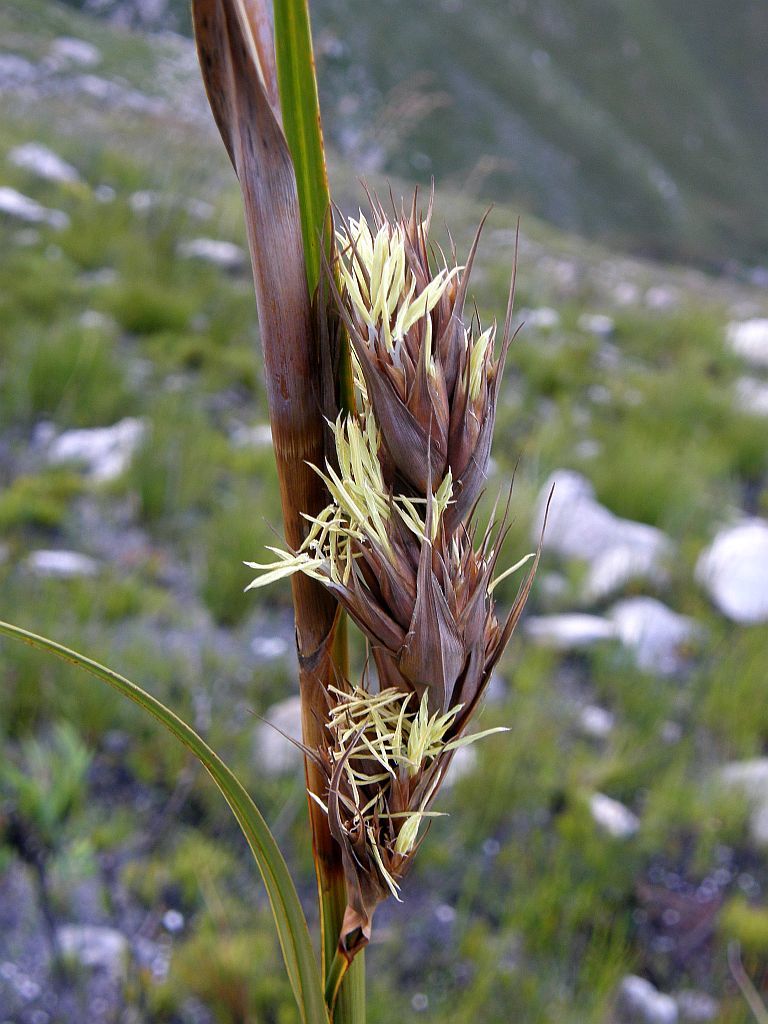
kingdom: Plantae
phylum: Tracheophyta
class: Liliopsida
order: Poales
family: Cyperaceae
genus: Tetraria
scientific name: Tetraria thermalis
